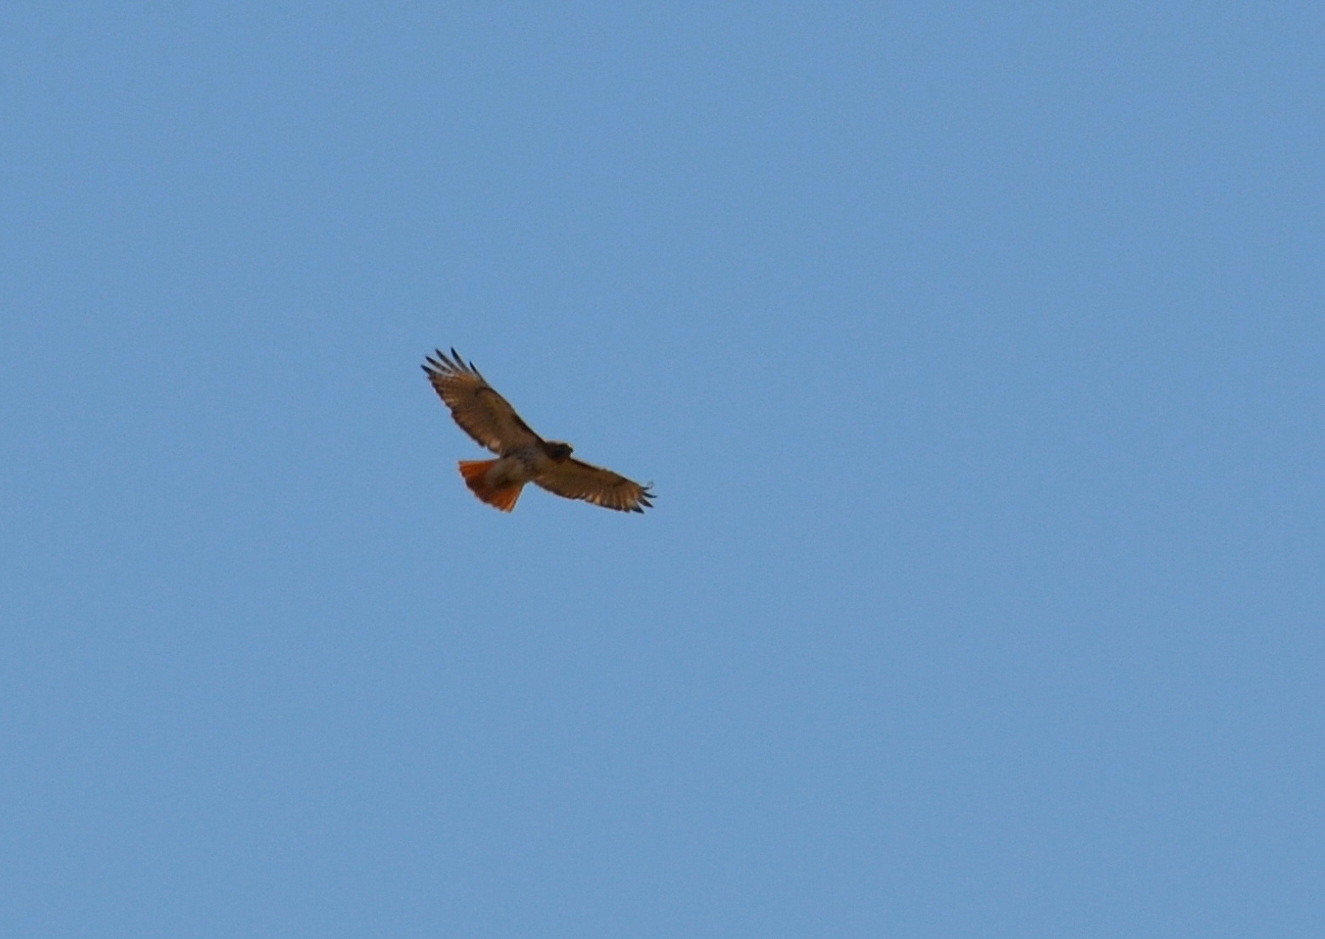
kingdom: Animalia
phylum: Chordata
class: Aves
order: Accipitriformes
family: Accipitridae
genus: Buteo
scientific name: Buteo jamaicensis
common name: Red-tailed hawk
